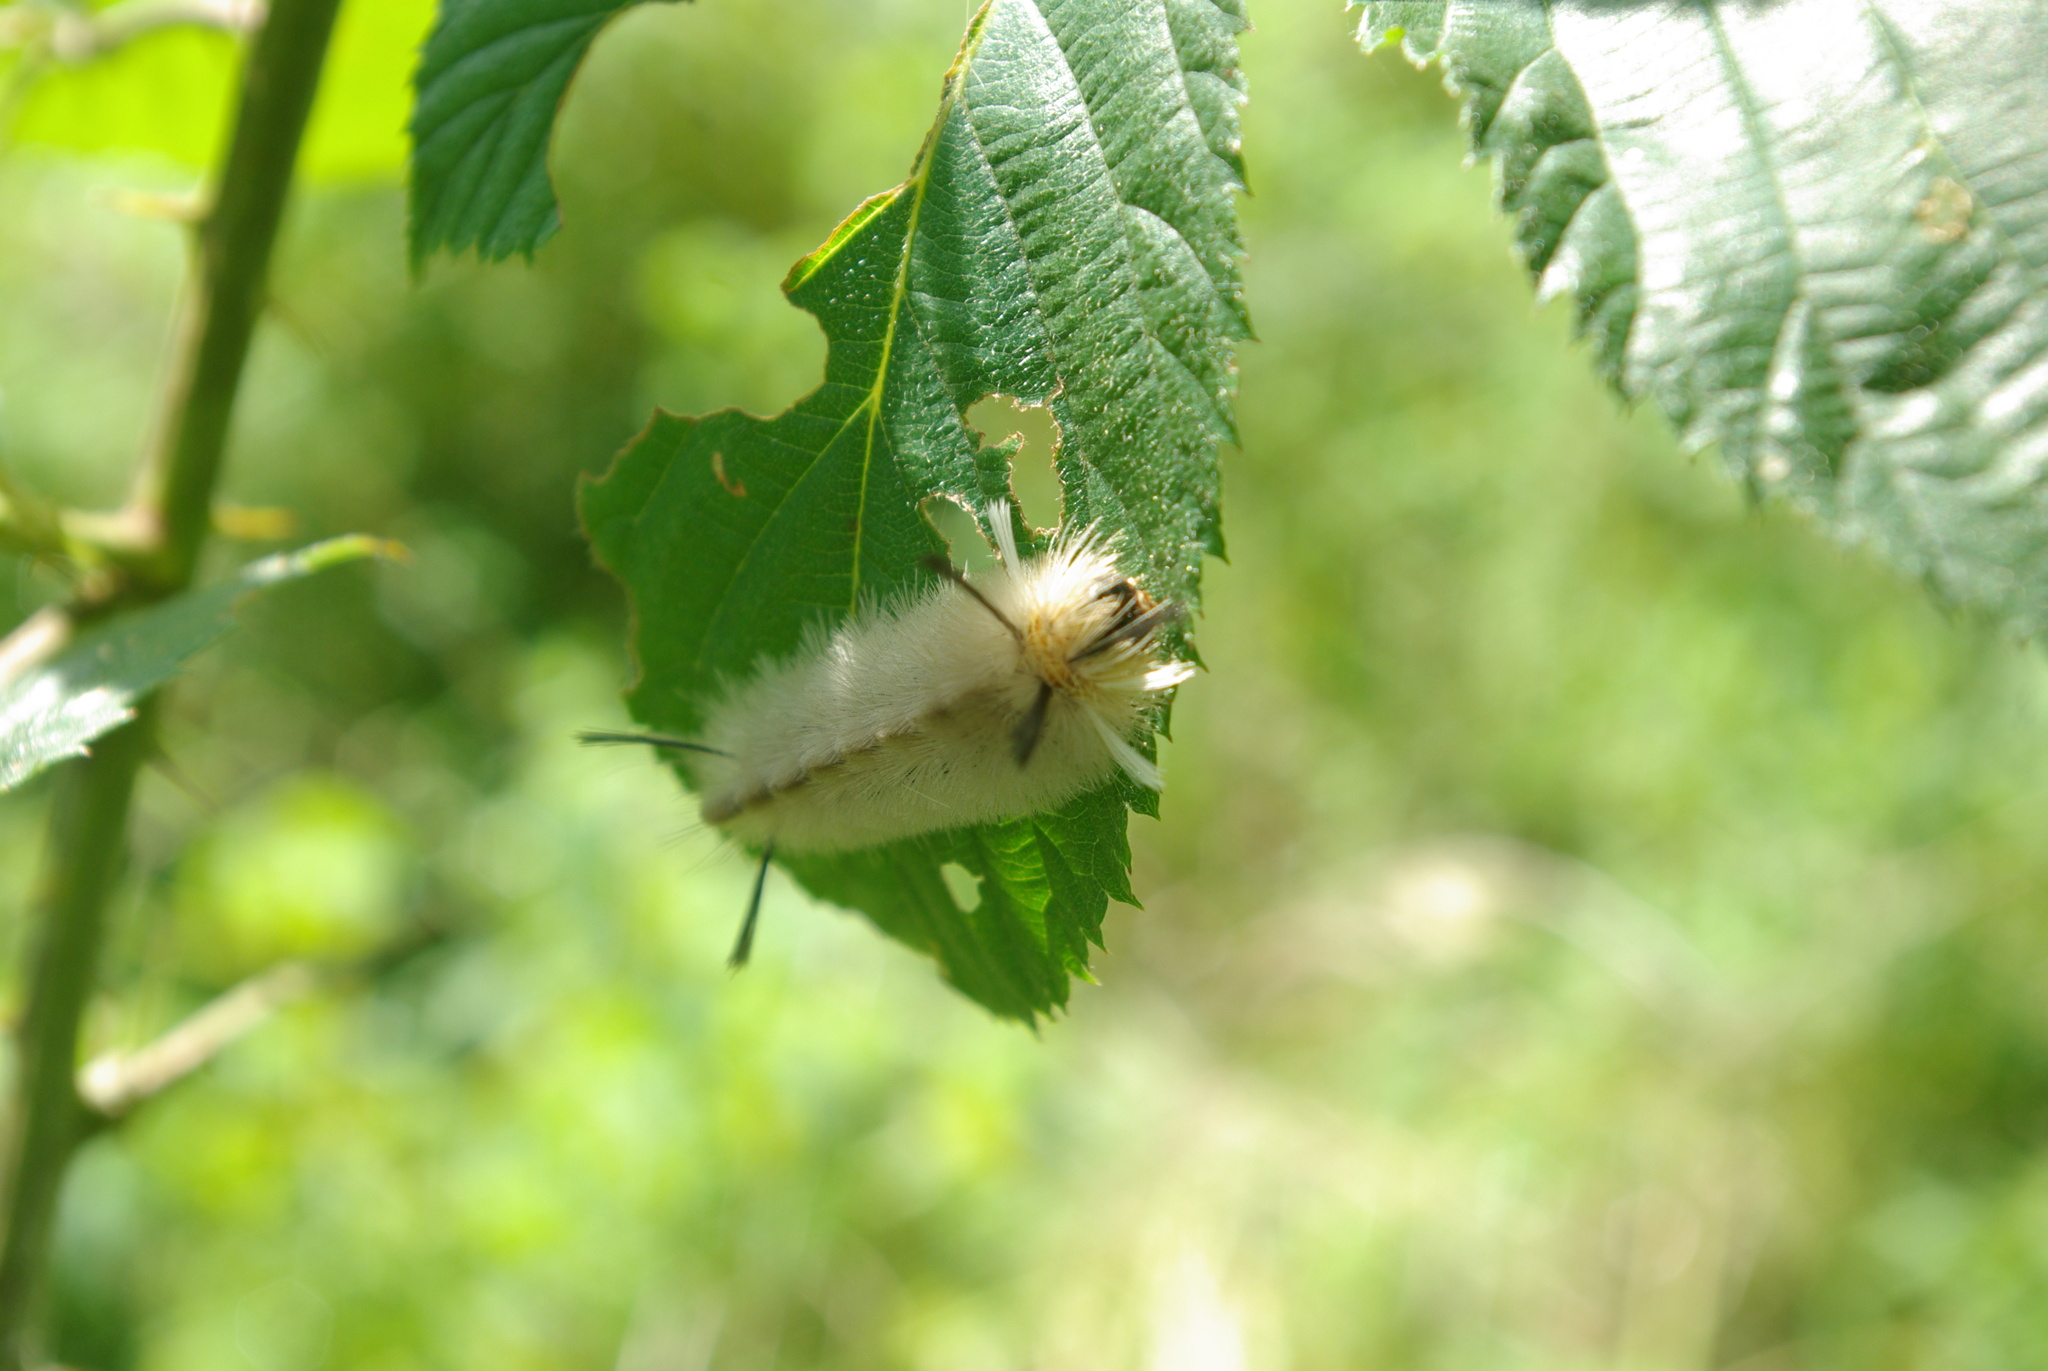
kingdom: Animalia
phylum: Arthropoda
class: Insecta
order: Lepidoptera
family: Erebidae
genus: Halysidota
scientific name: Halysidota tessellaris
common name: Banded tussock moth
